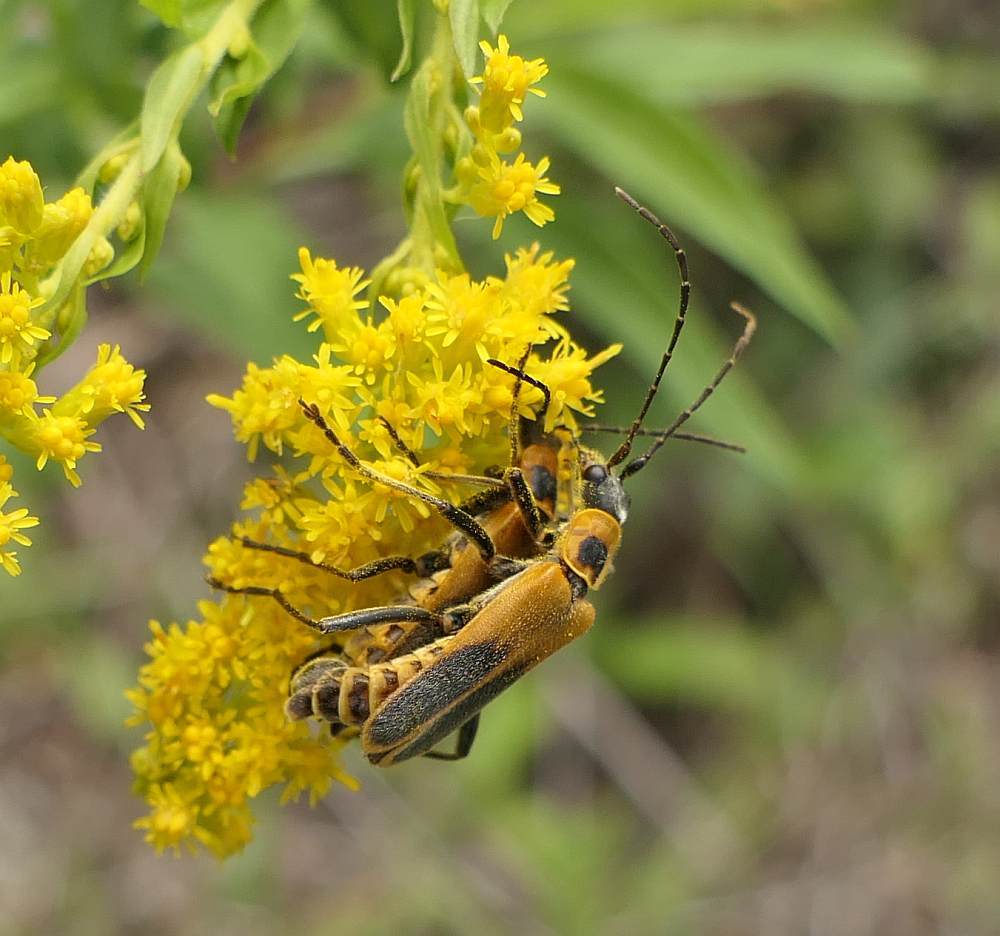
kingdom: Animalia
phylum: Arthropoda
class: Insecta
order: Coleoptera
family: Cantharidae
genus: Chauliognathus
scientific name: Chauliognathus pensylvanicus
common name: Goldenrod soldier beetle
